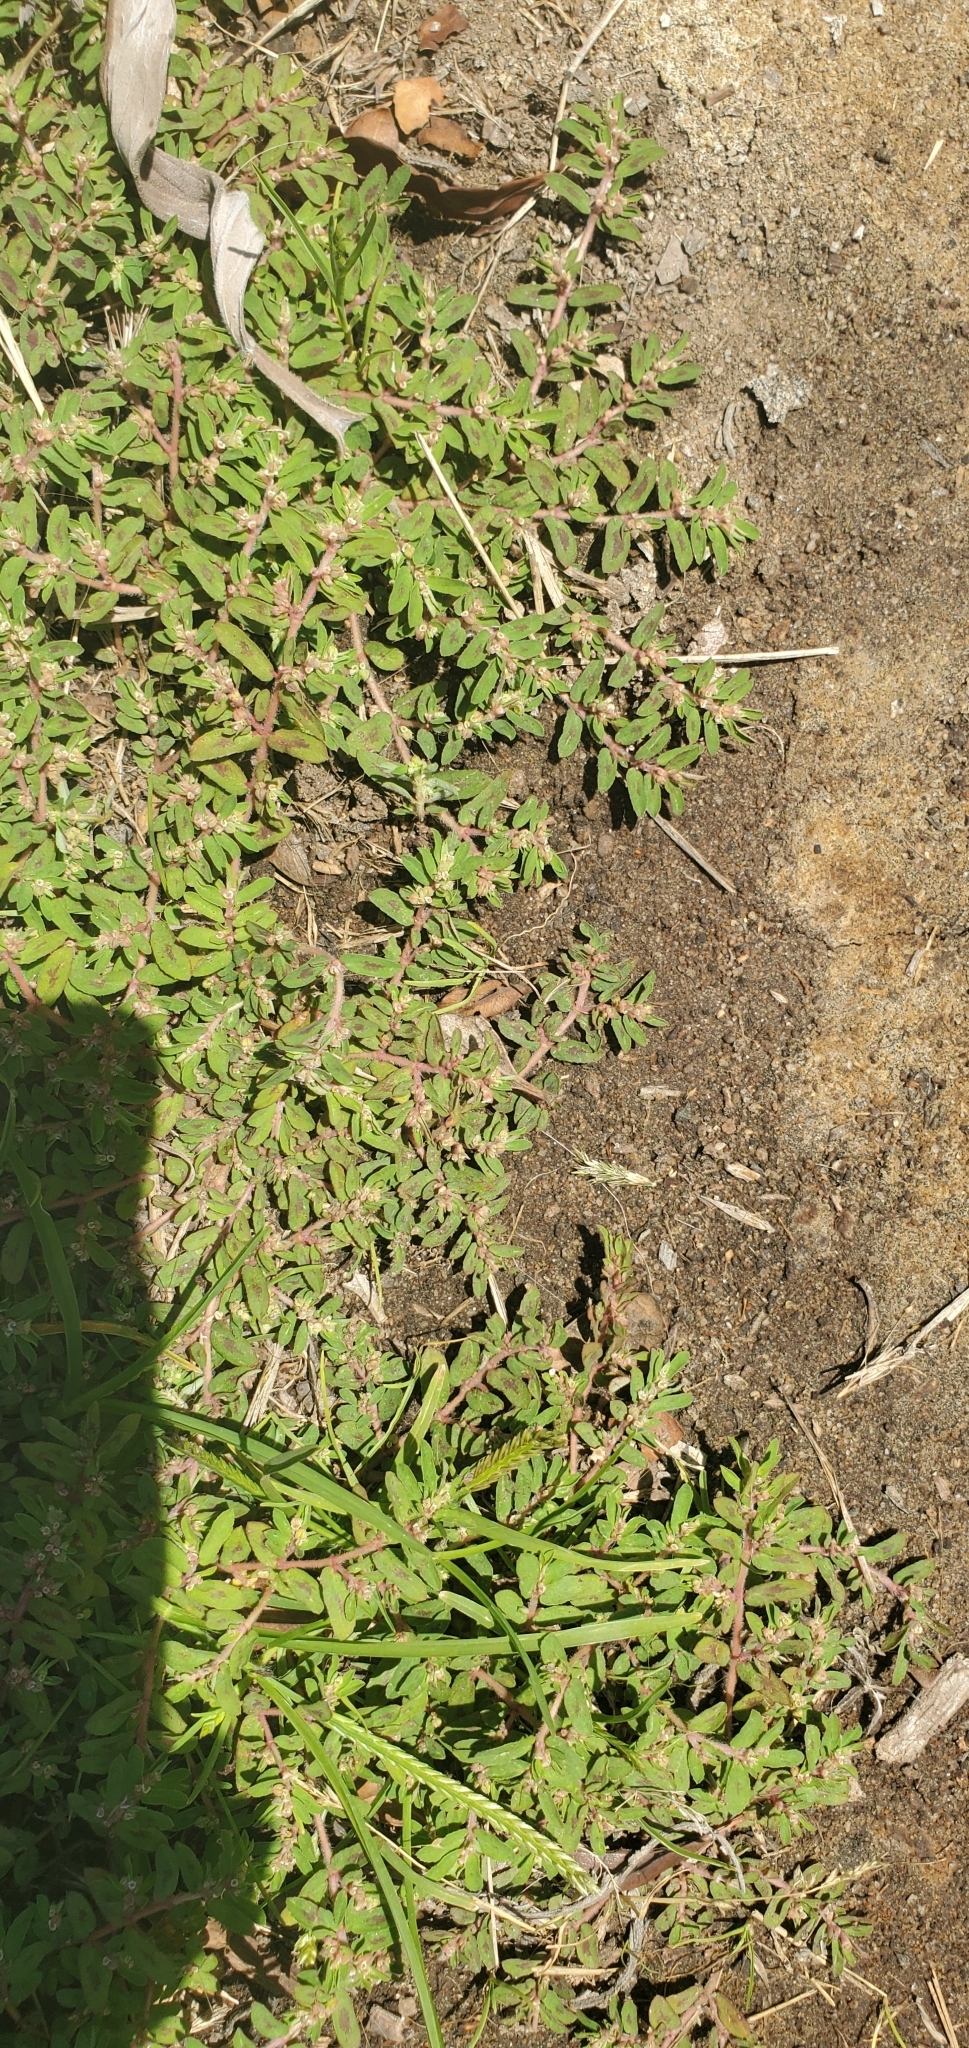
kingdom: Plantae
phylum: Tracheophyta
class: Magnoliopsida
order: Malpighiales
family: Euphorbiaceae
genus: Euphorbia
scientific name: Euphorbia maculata
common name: Spotted spurge
